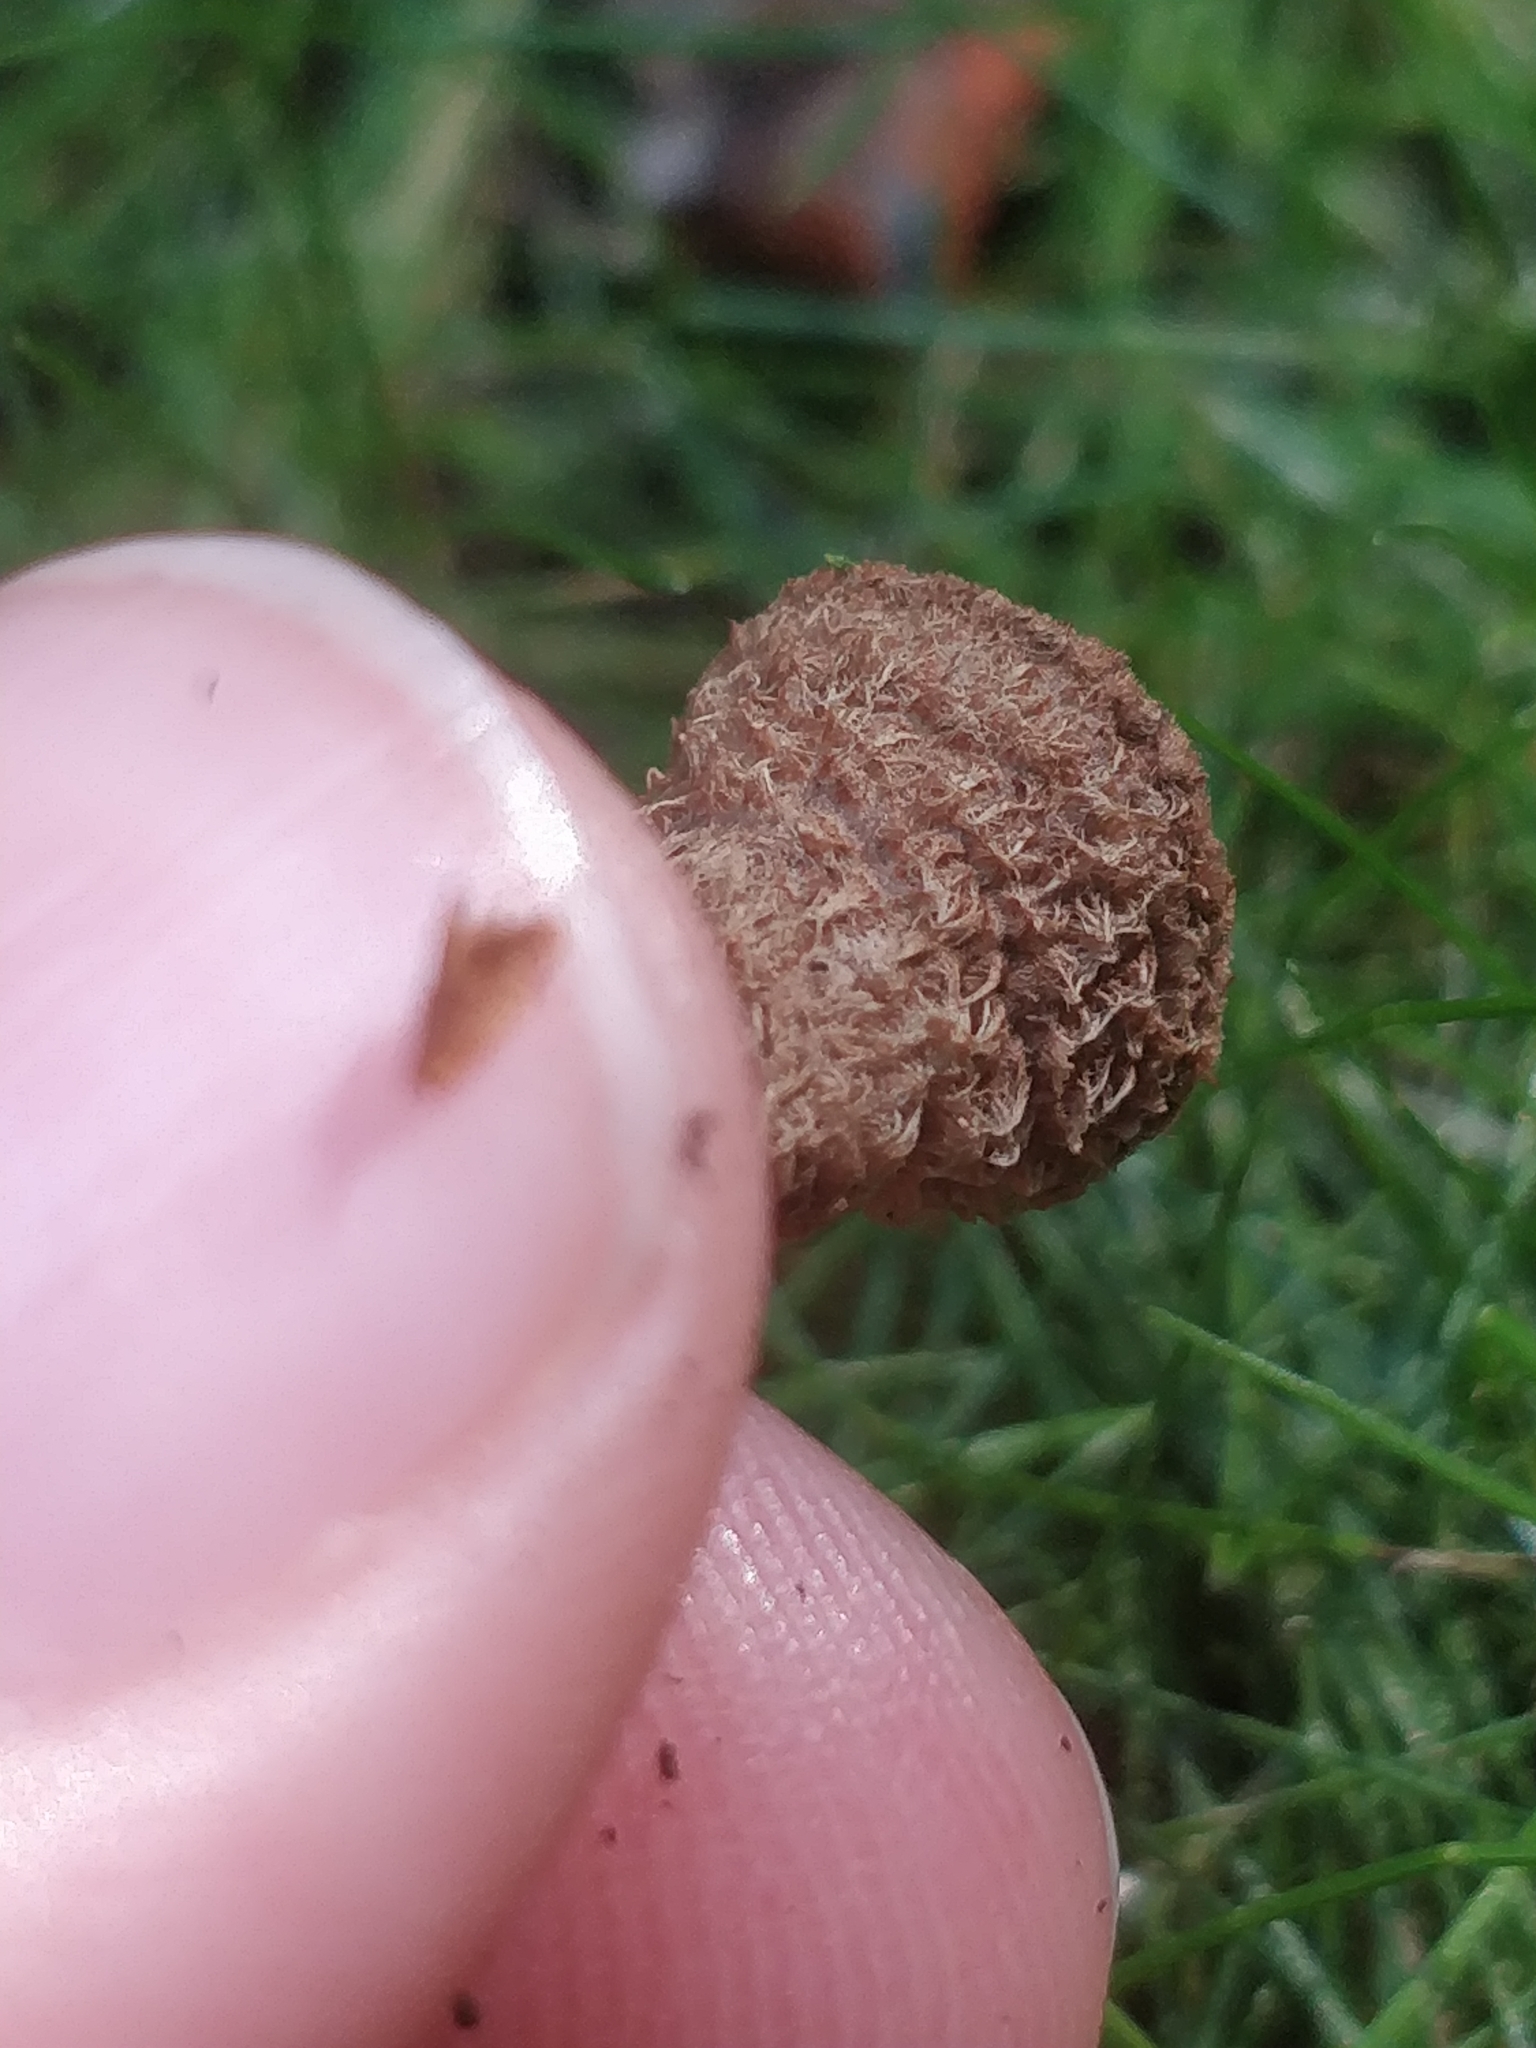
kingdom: Fungi
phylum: Basidiomycota
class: Agaricomycetes
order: Agaricales
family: Agaricaceae
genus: Cyathus
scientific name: Cyathus striatus
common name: Fluted bird's nest
